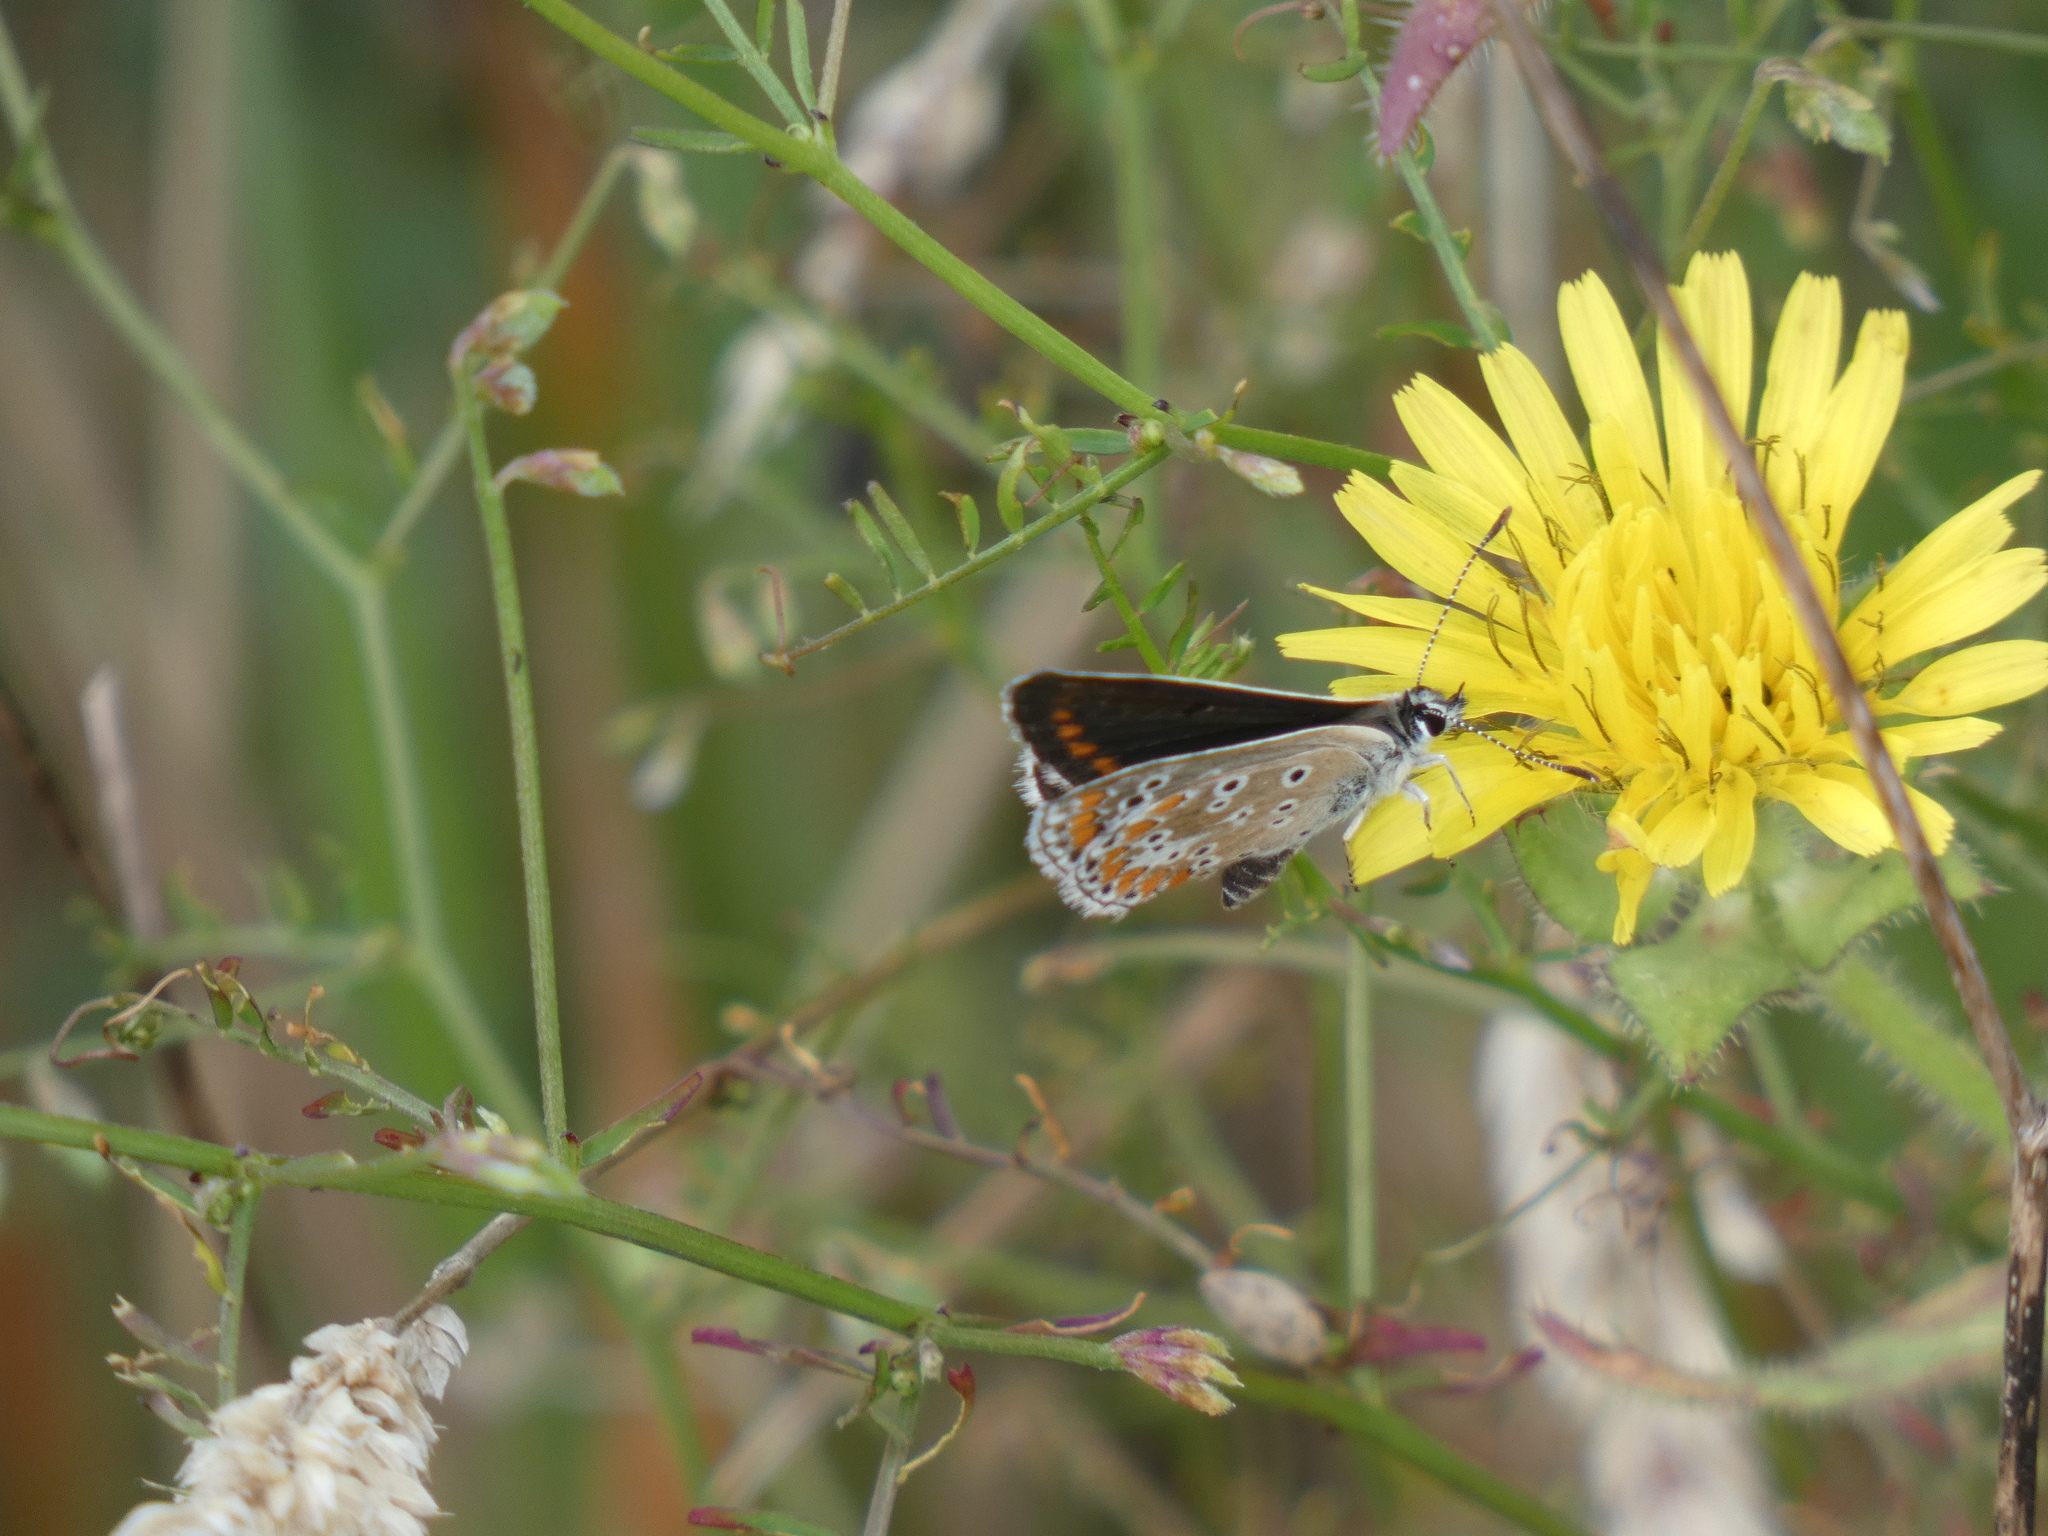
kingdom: Animalia
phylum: Arthropoda
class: Insecta
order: Lepidoptera
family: Lycaenidae
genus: Aricia
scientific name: Aricia agestis
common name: Brown argus
